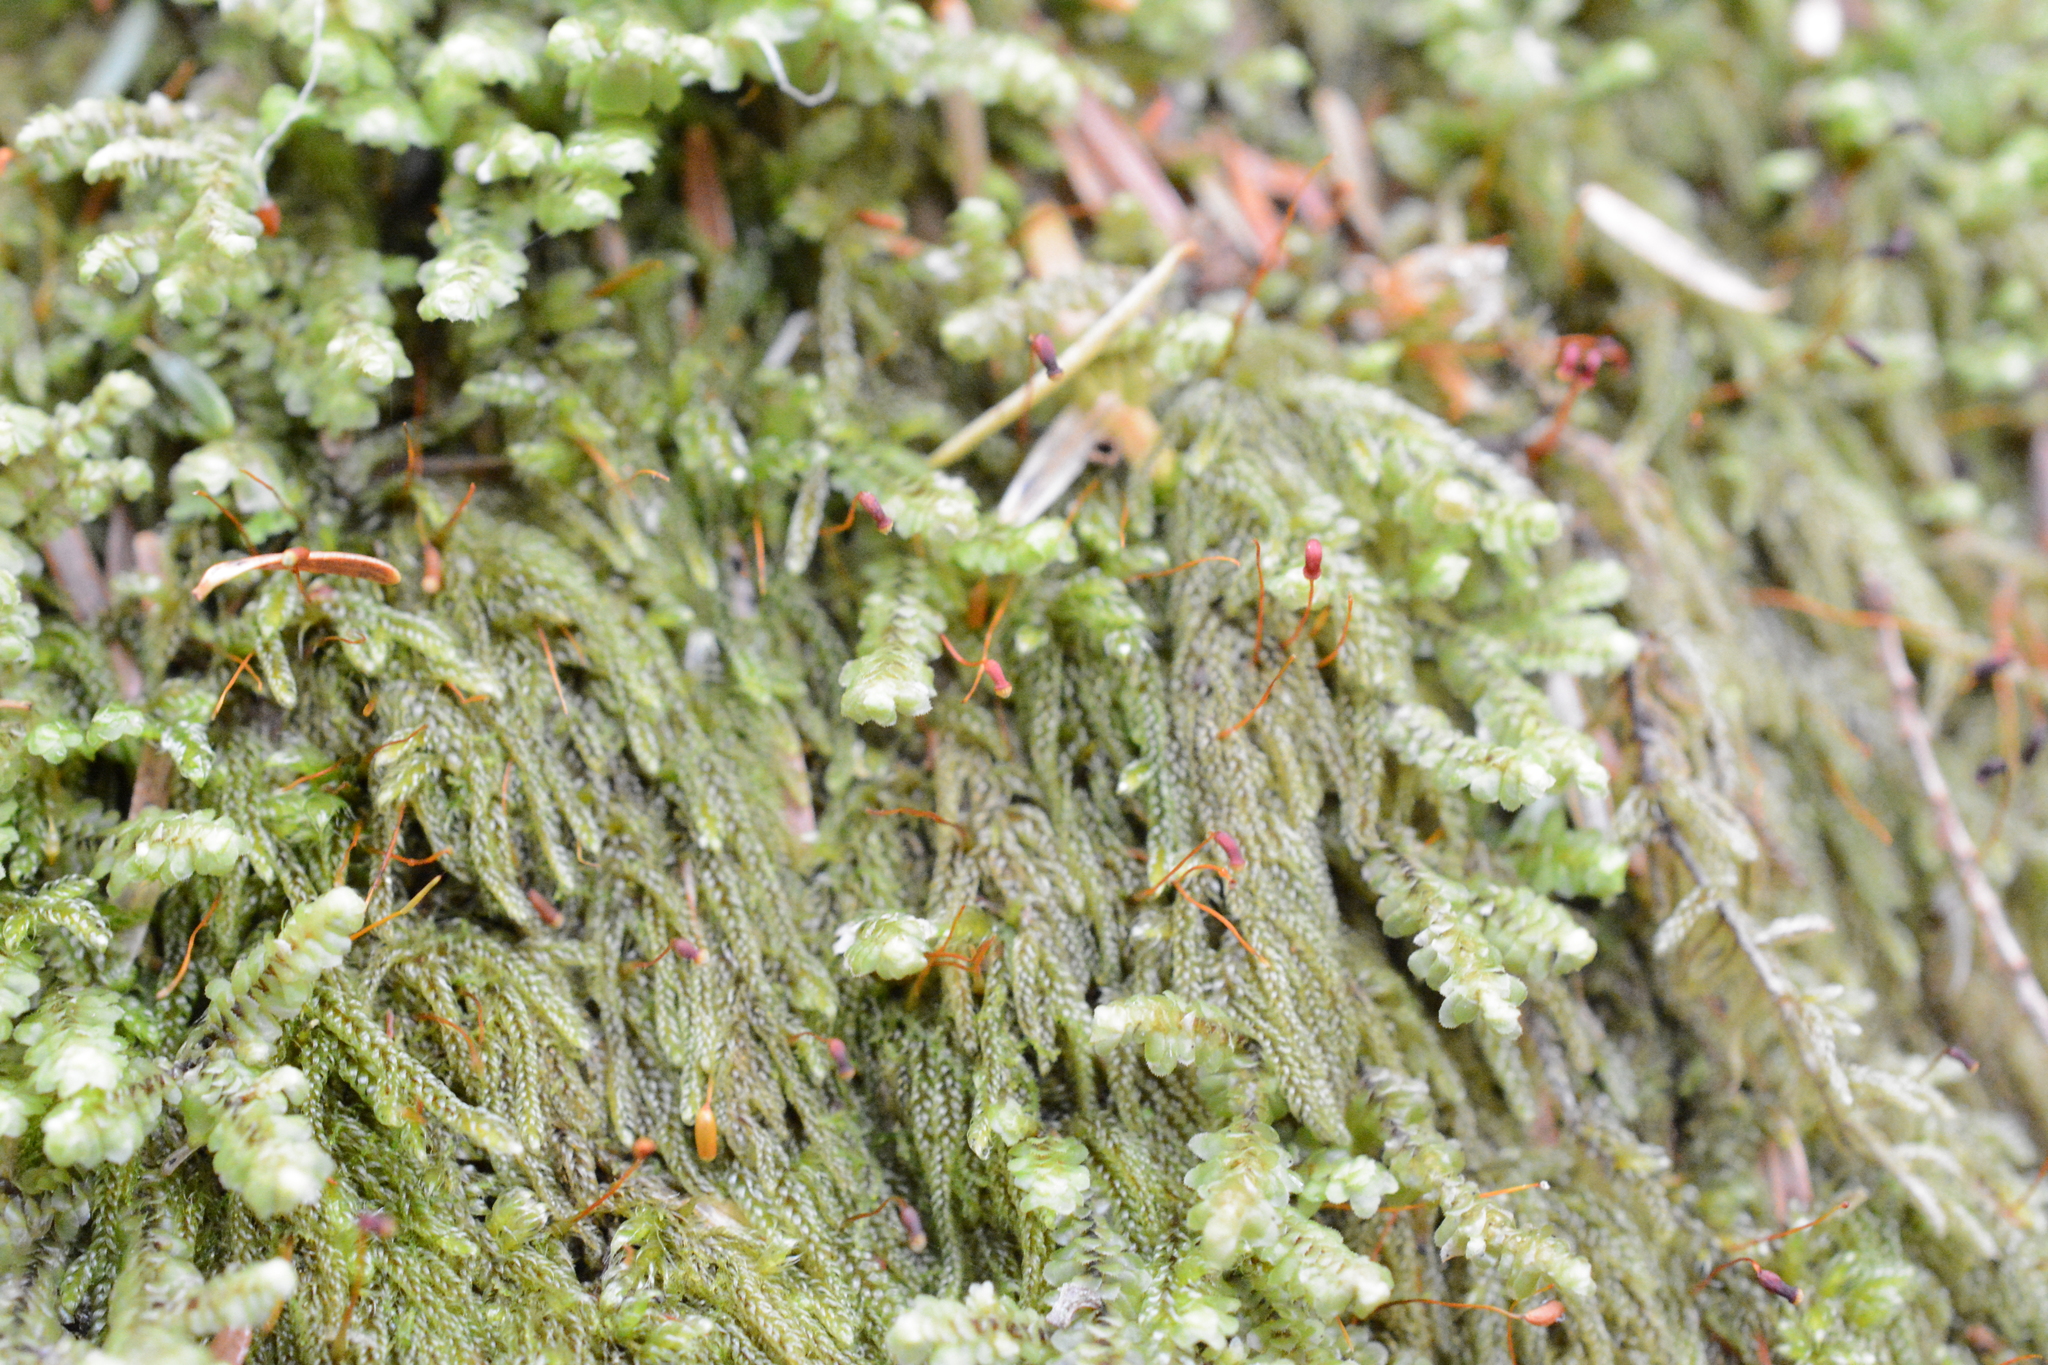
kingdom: Plantae
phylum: Bryophyta
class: Bryopsida
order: Hypnales
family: Pylaisiadelphaceae
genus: Trochophyllohypnum
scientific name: Trochophyllohypnum circinale
